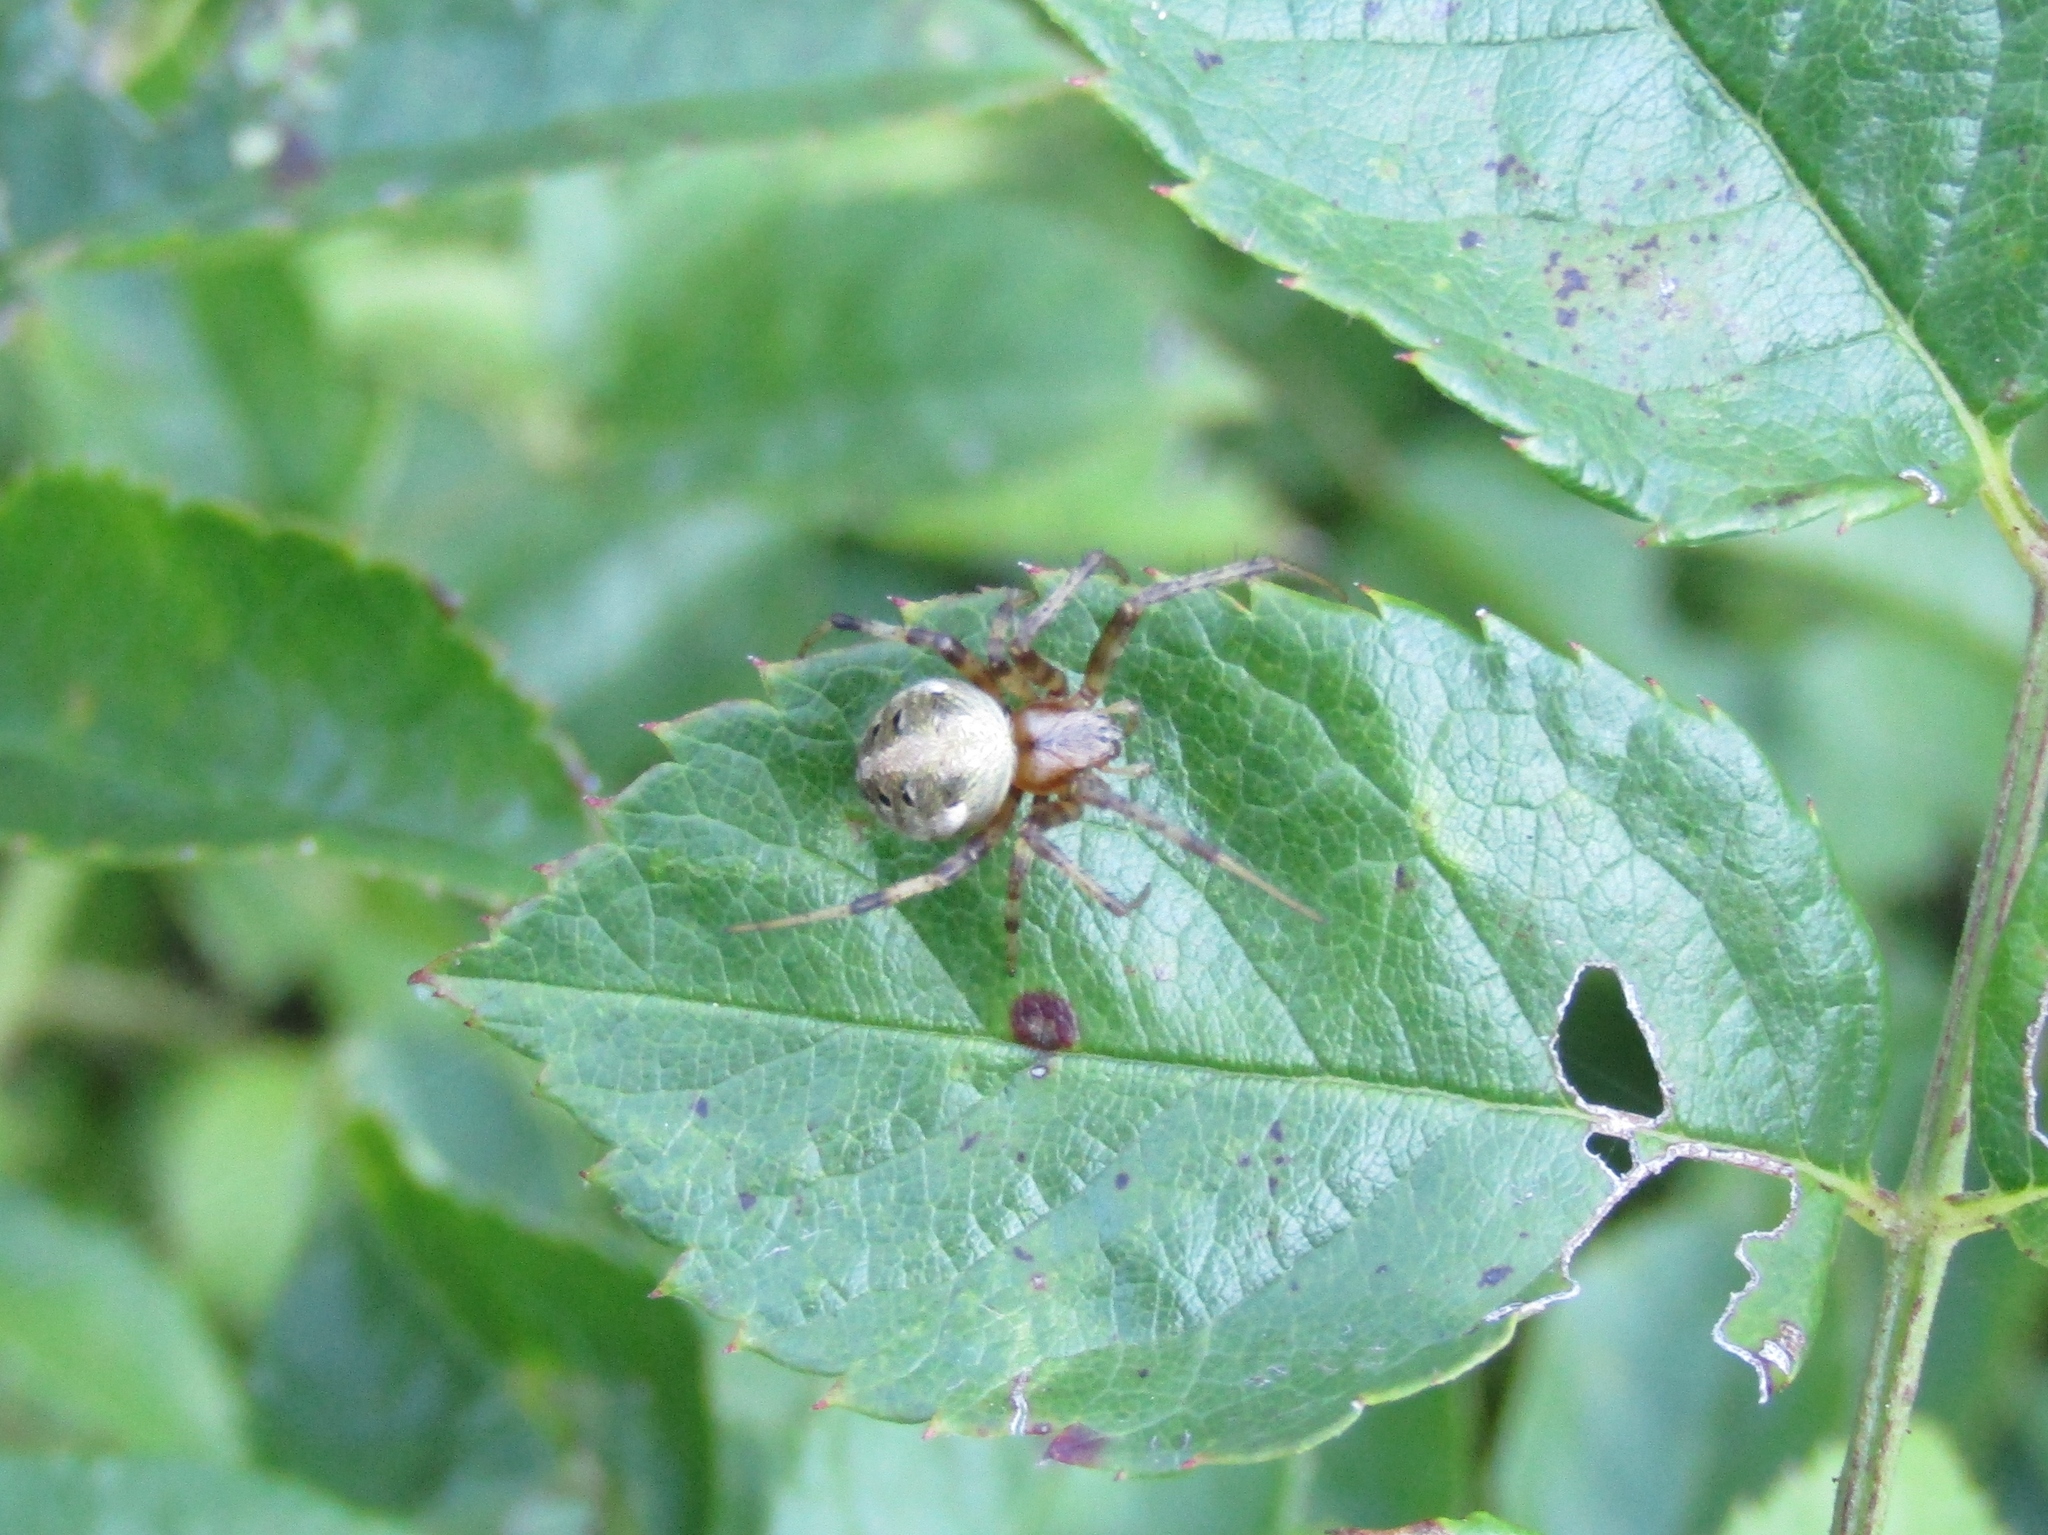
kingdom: Animalia
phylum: Arthropoda
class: Arachnida
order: Araneae
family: Araneidae
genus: Neoscona
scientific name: Neoscona arabesca
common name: Orb weavers
